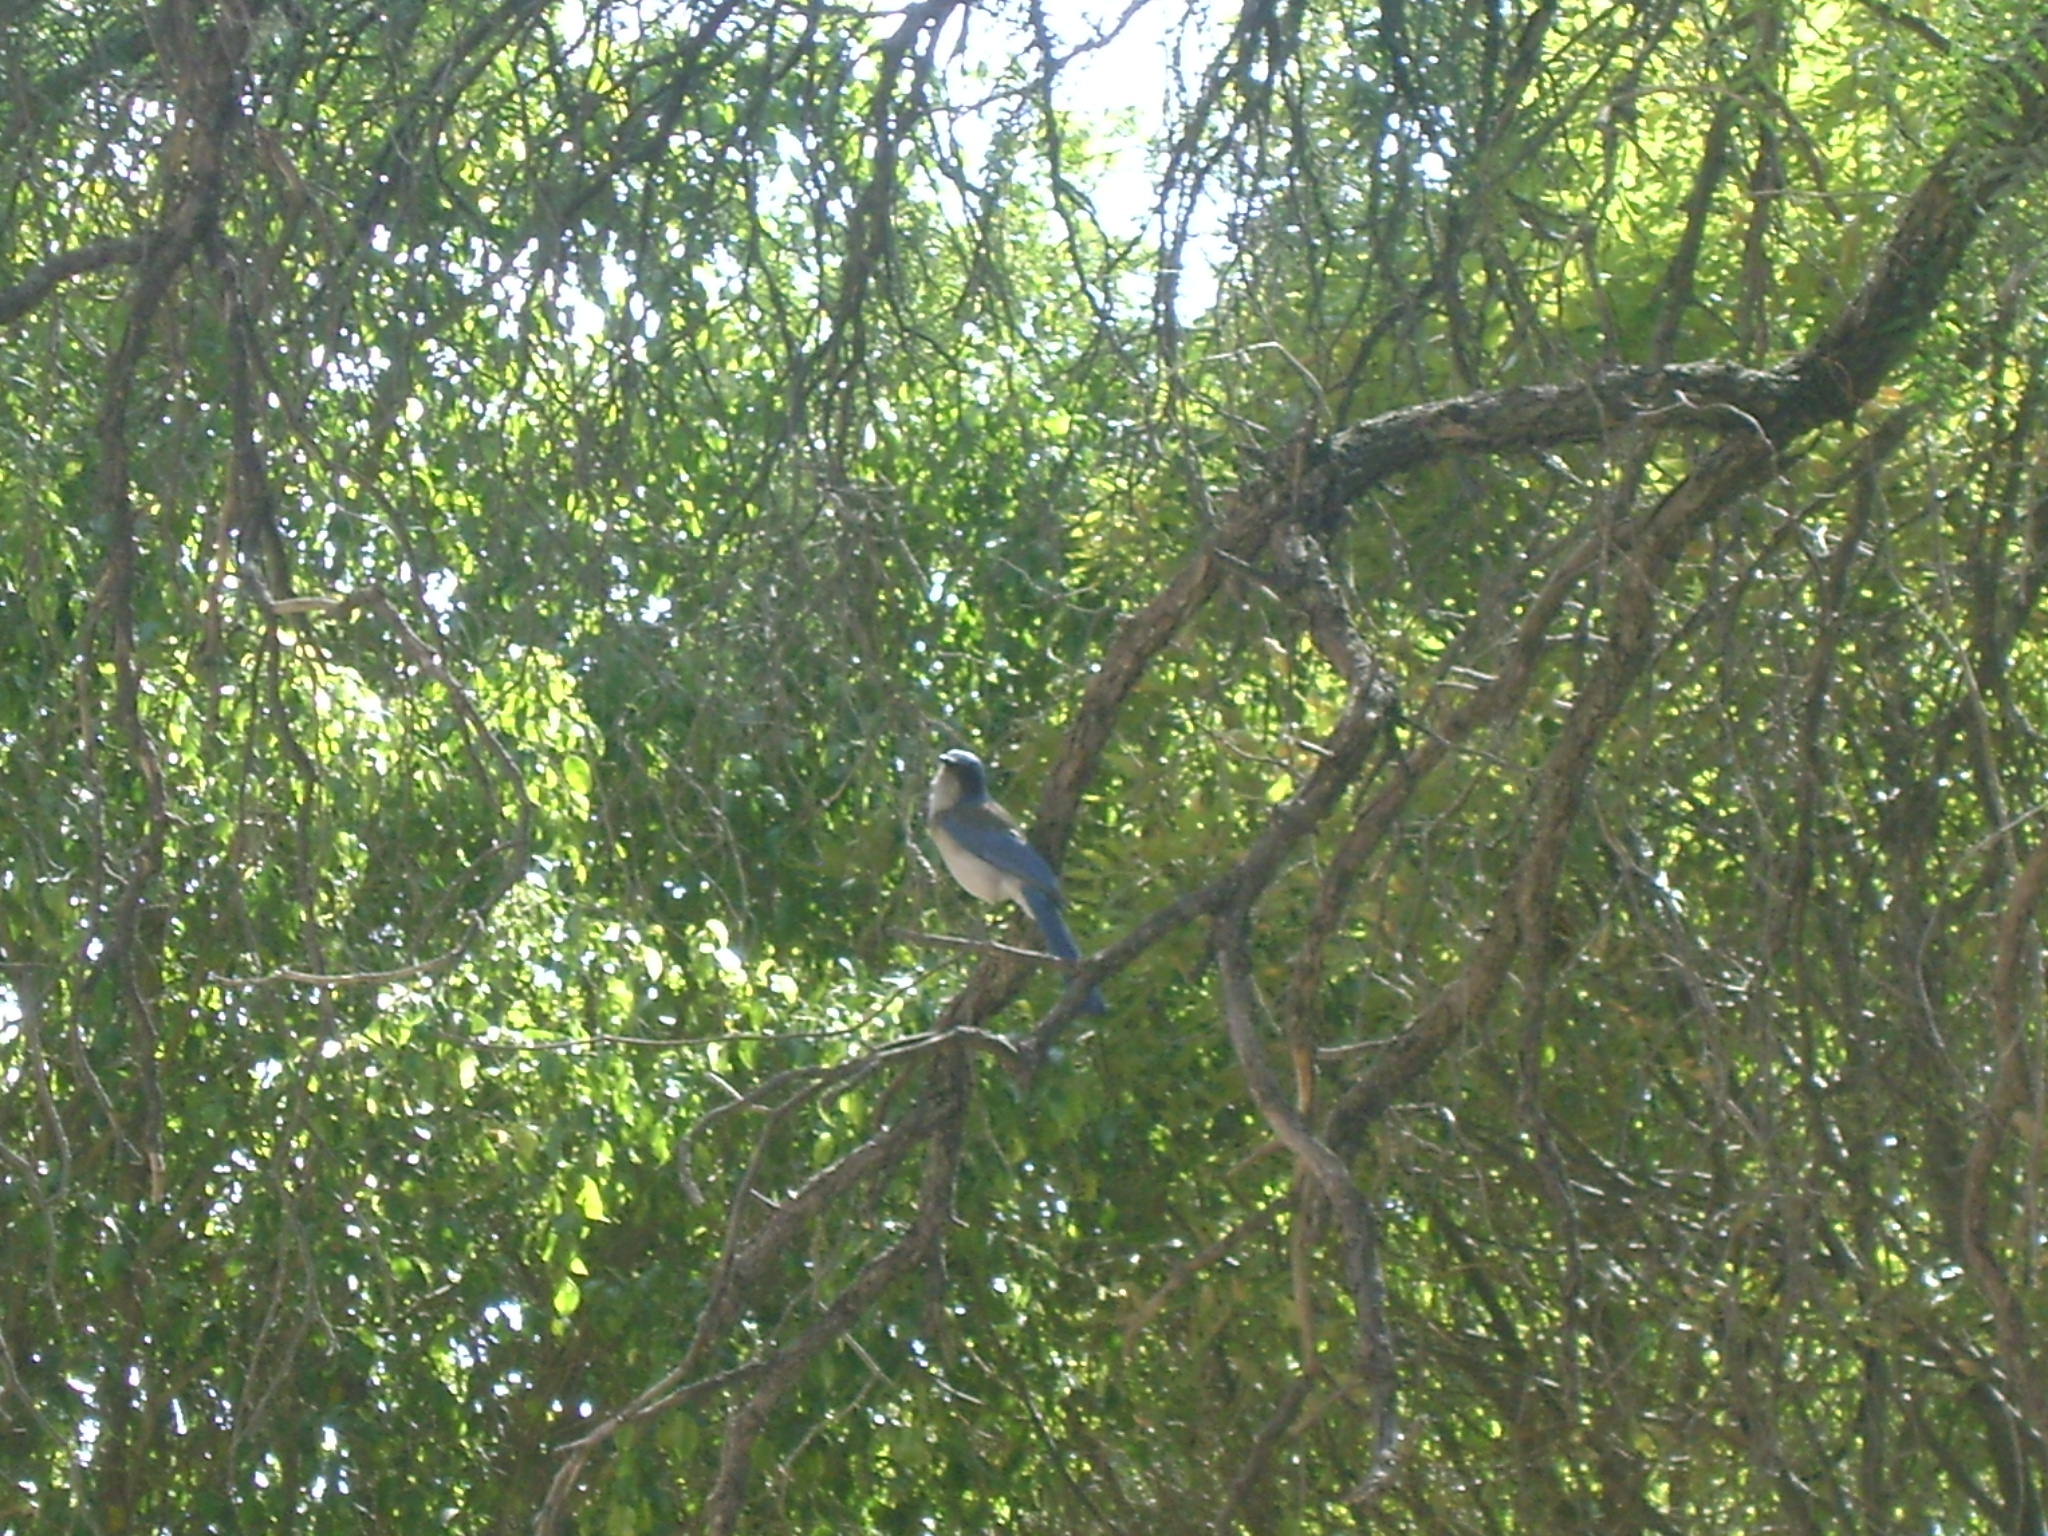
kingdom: Animalia
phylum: Chordata
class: Aves
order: Passeriformes
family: Corvidae
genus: Aphelocoma
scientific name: Aphelocoma woodhouseii
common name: Woodhouse's scrub-jay
